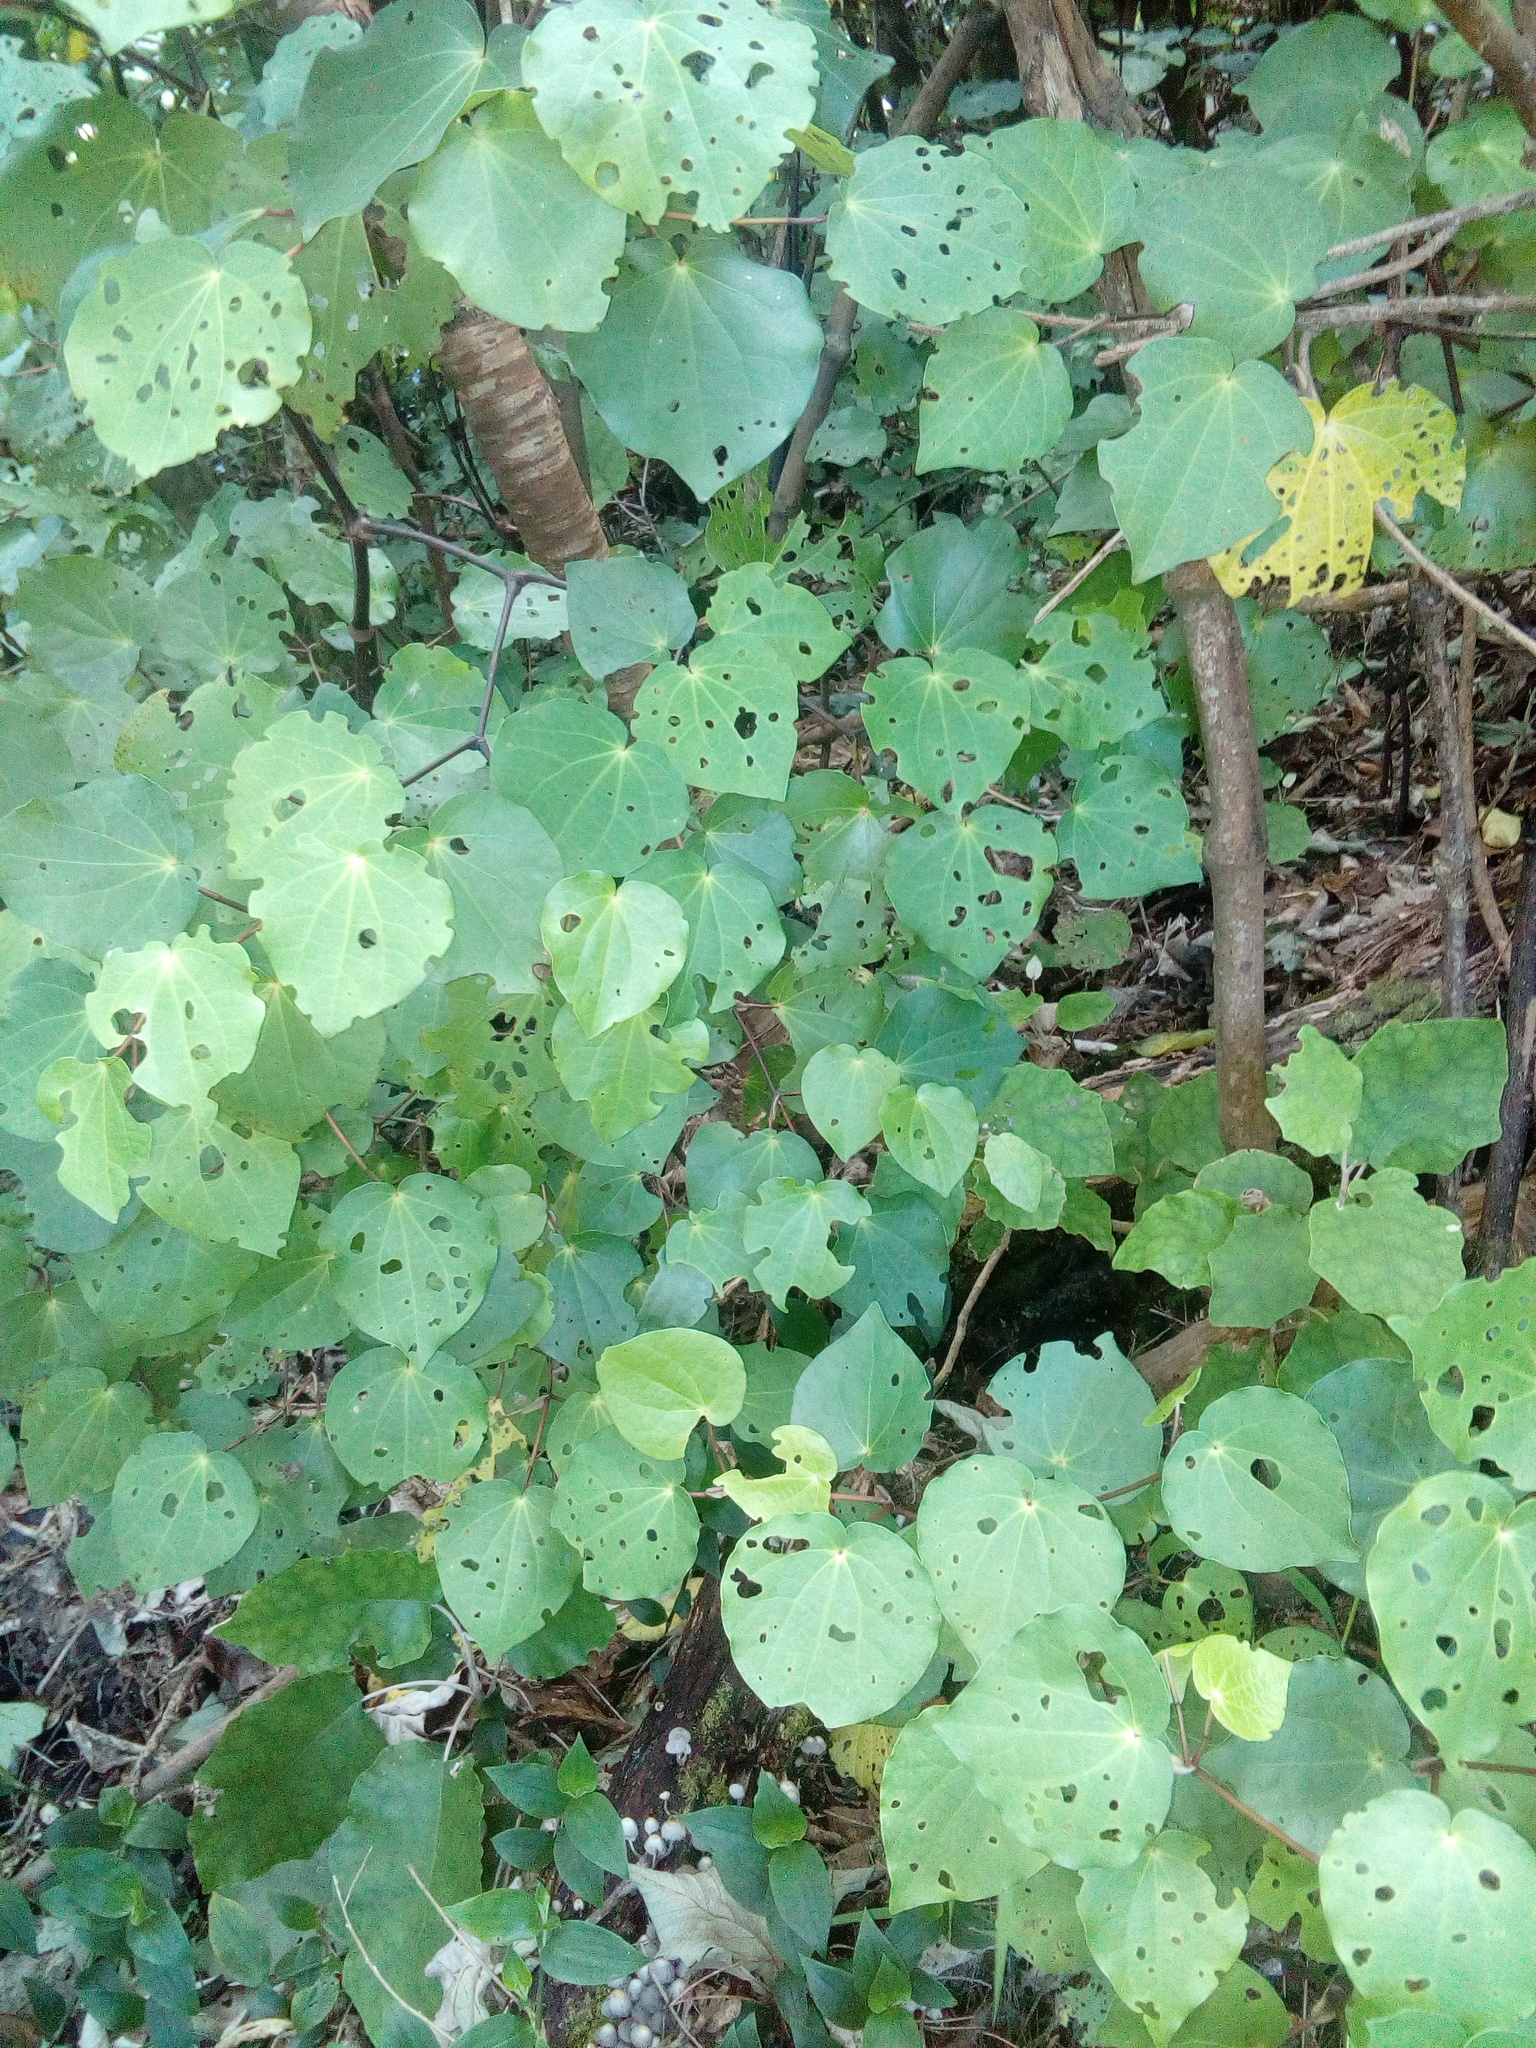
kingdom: Plantae
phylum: Tracheophyta
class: Magnoliopsida
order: Piperales
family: Piperaceae
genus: Macropiper
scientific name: Macropiper excelsum
